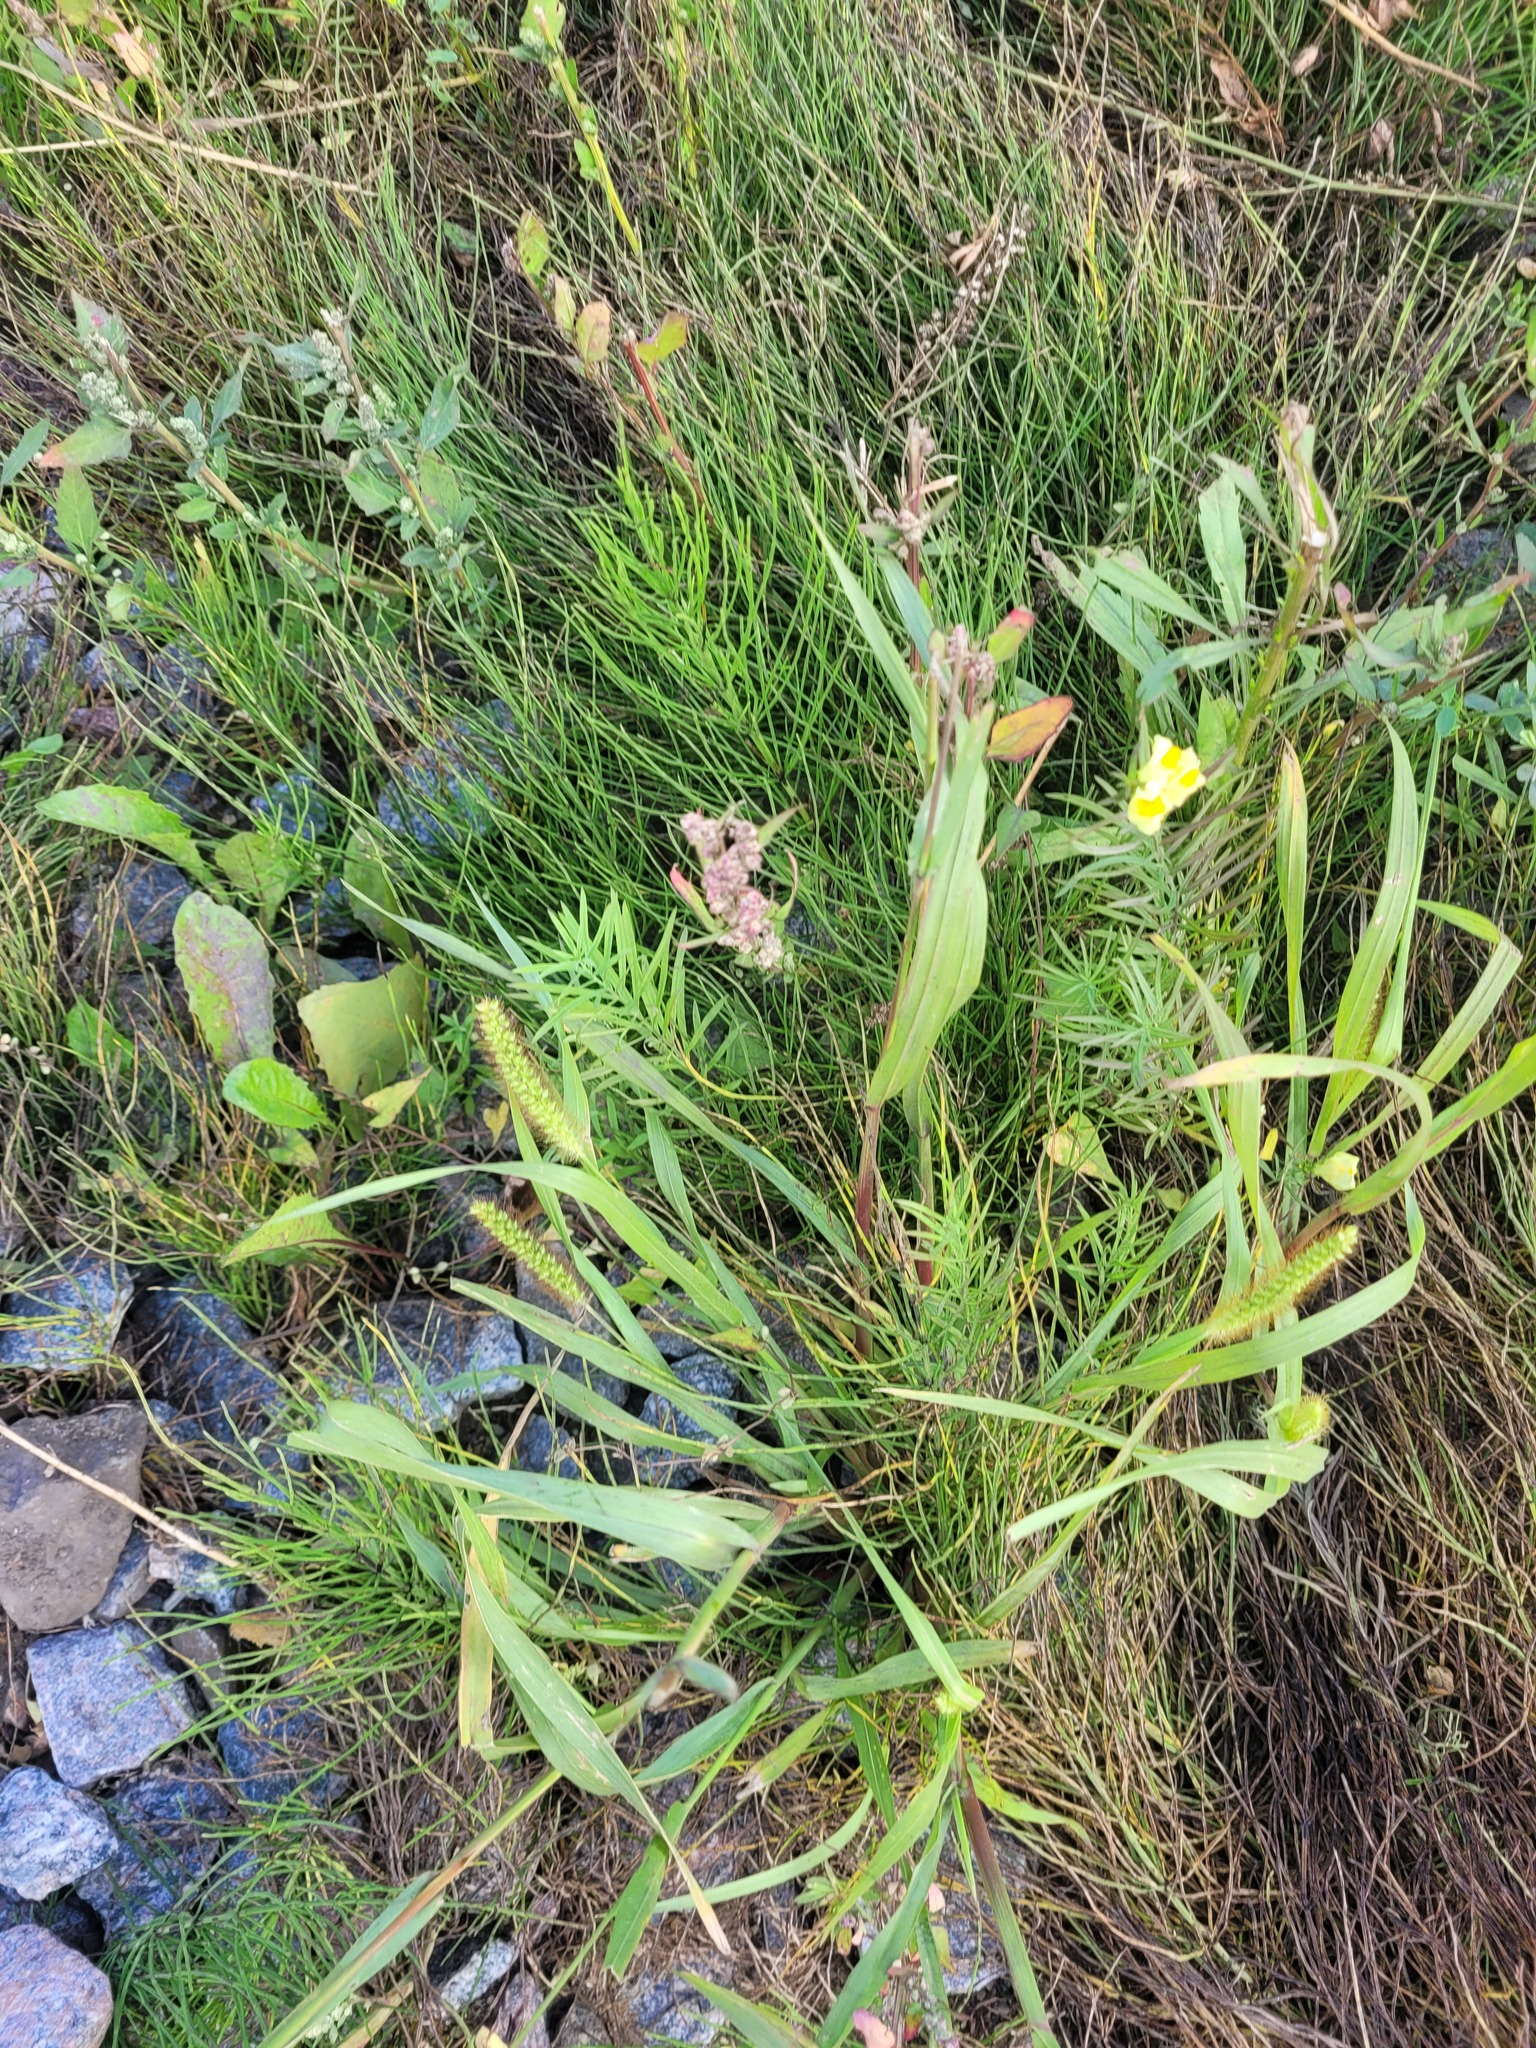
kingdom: Plantae
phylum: Tracheophyta
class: Liliopsida
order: Poales
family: Poaceae
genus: Setaria
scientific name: Setaria pumila
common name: Yellow bristle-grass
